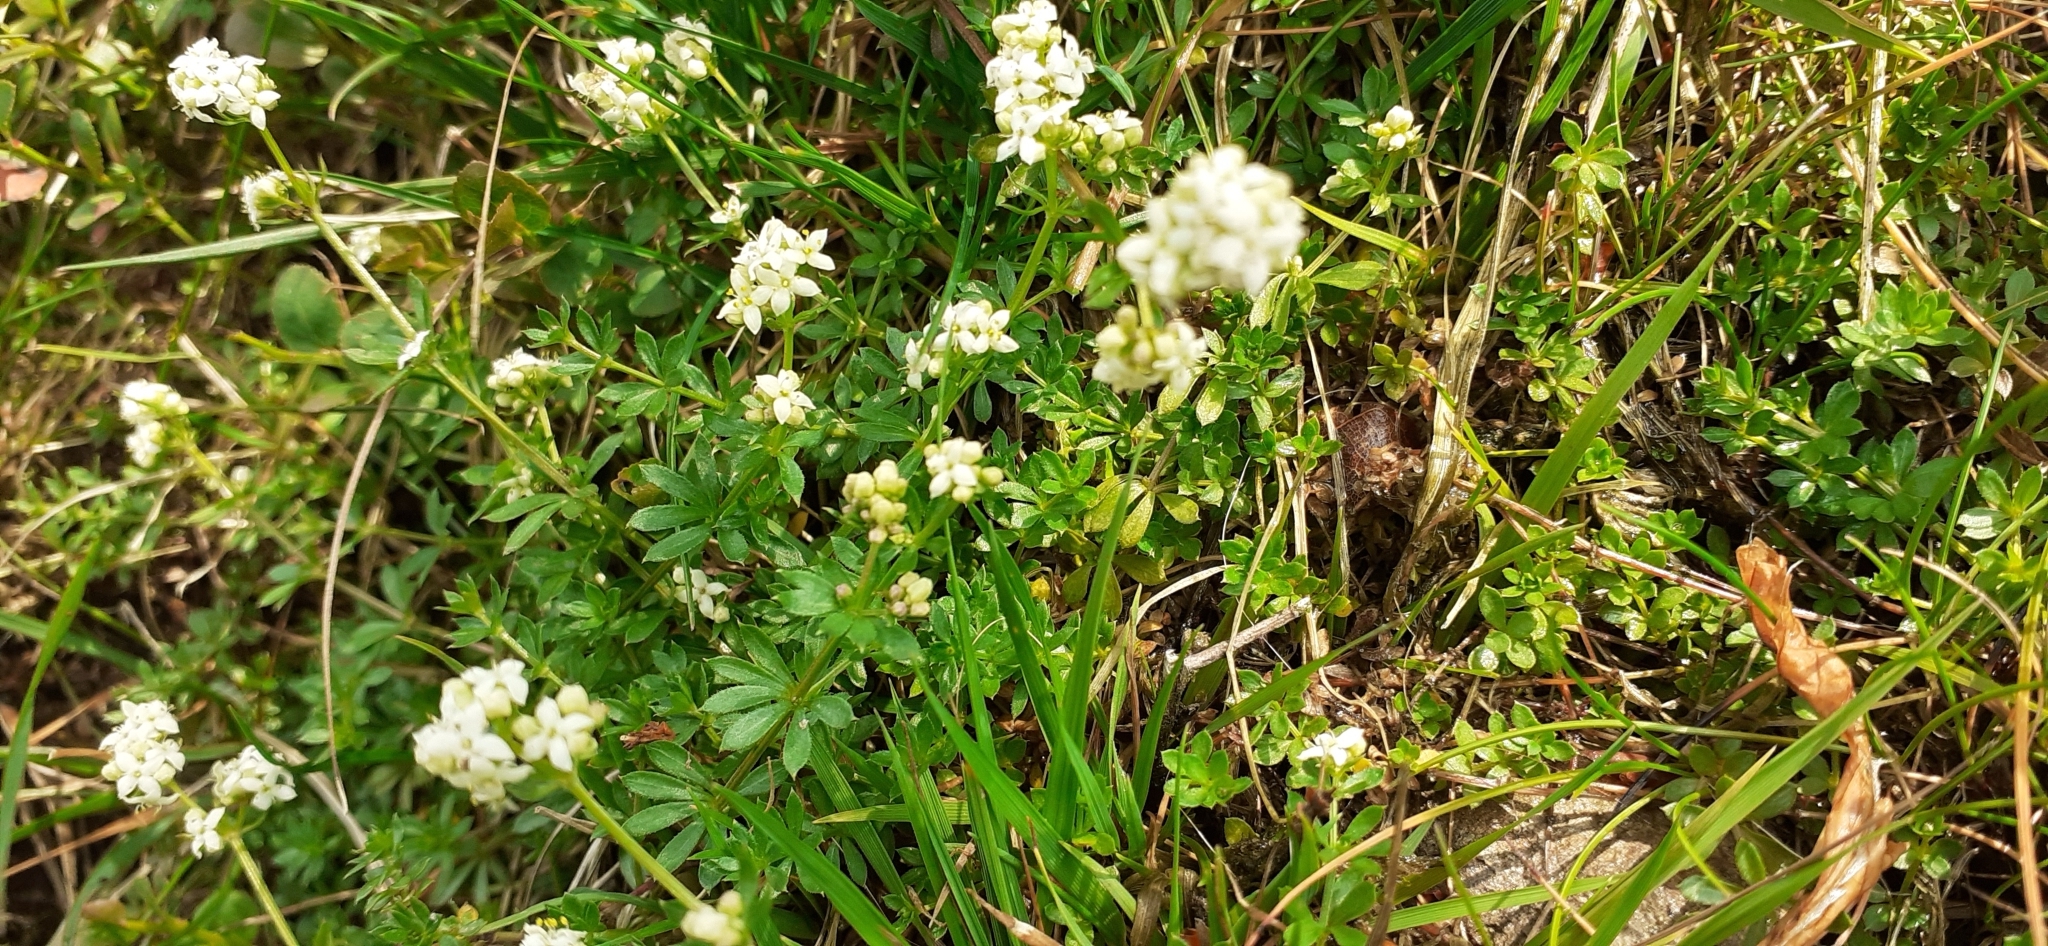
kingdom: Plantae
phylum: Tracheophyta
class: Magnoliopsida
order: Gentianales
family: Rubiaceae
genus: Galium
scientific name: Galium saxatile
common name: Heath bedstraw
